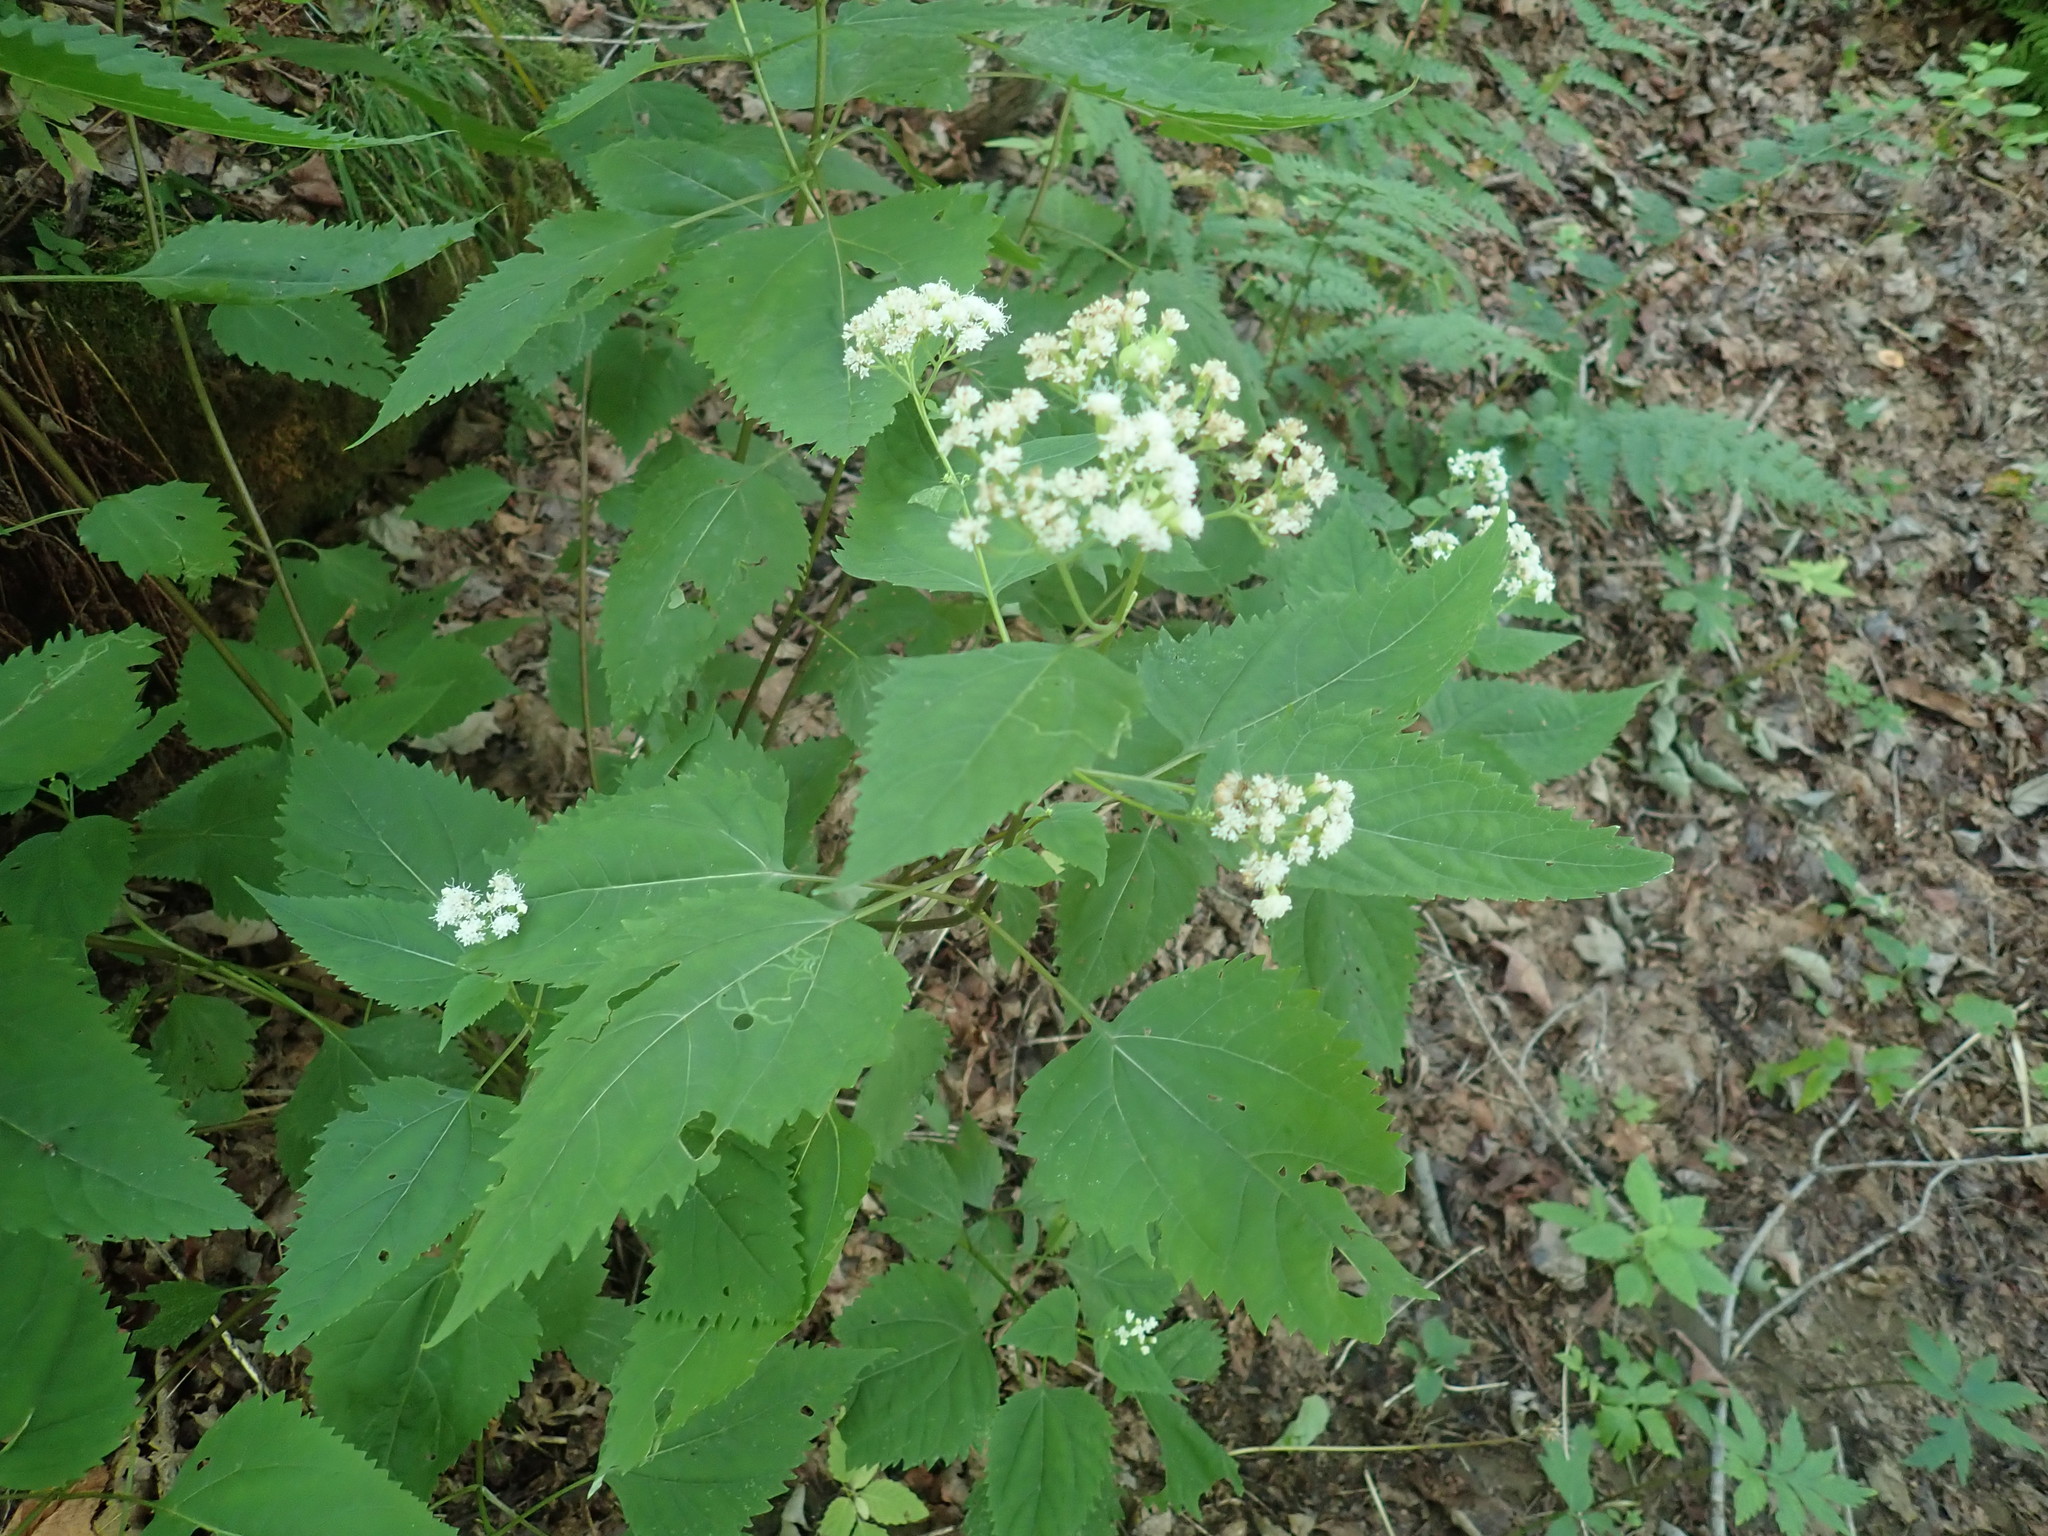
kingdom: Plantae
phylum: Tracheophyta
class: Magnoliopsida
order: Asterales
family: Asteraceae
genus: Ageratina
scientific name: Ageratina altissima
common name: White snakeroot
